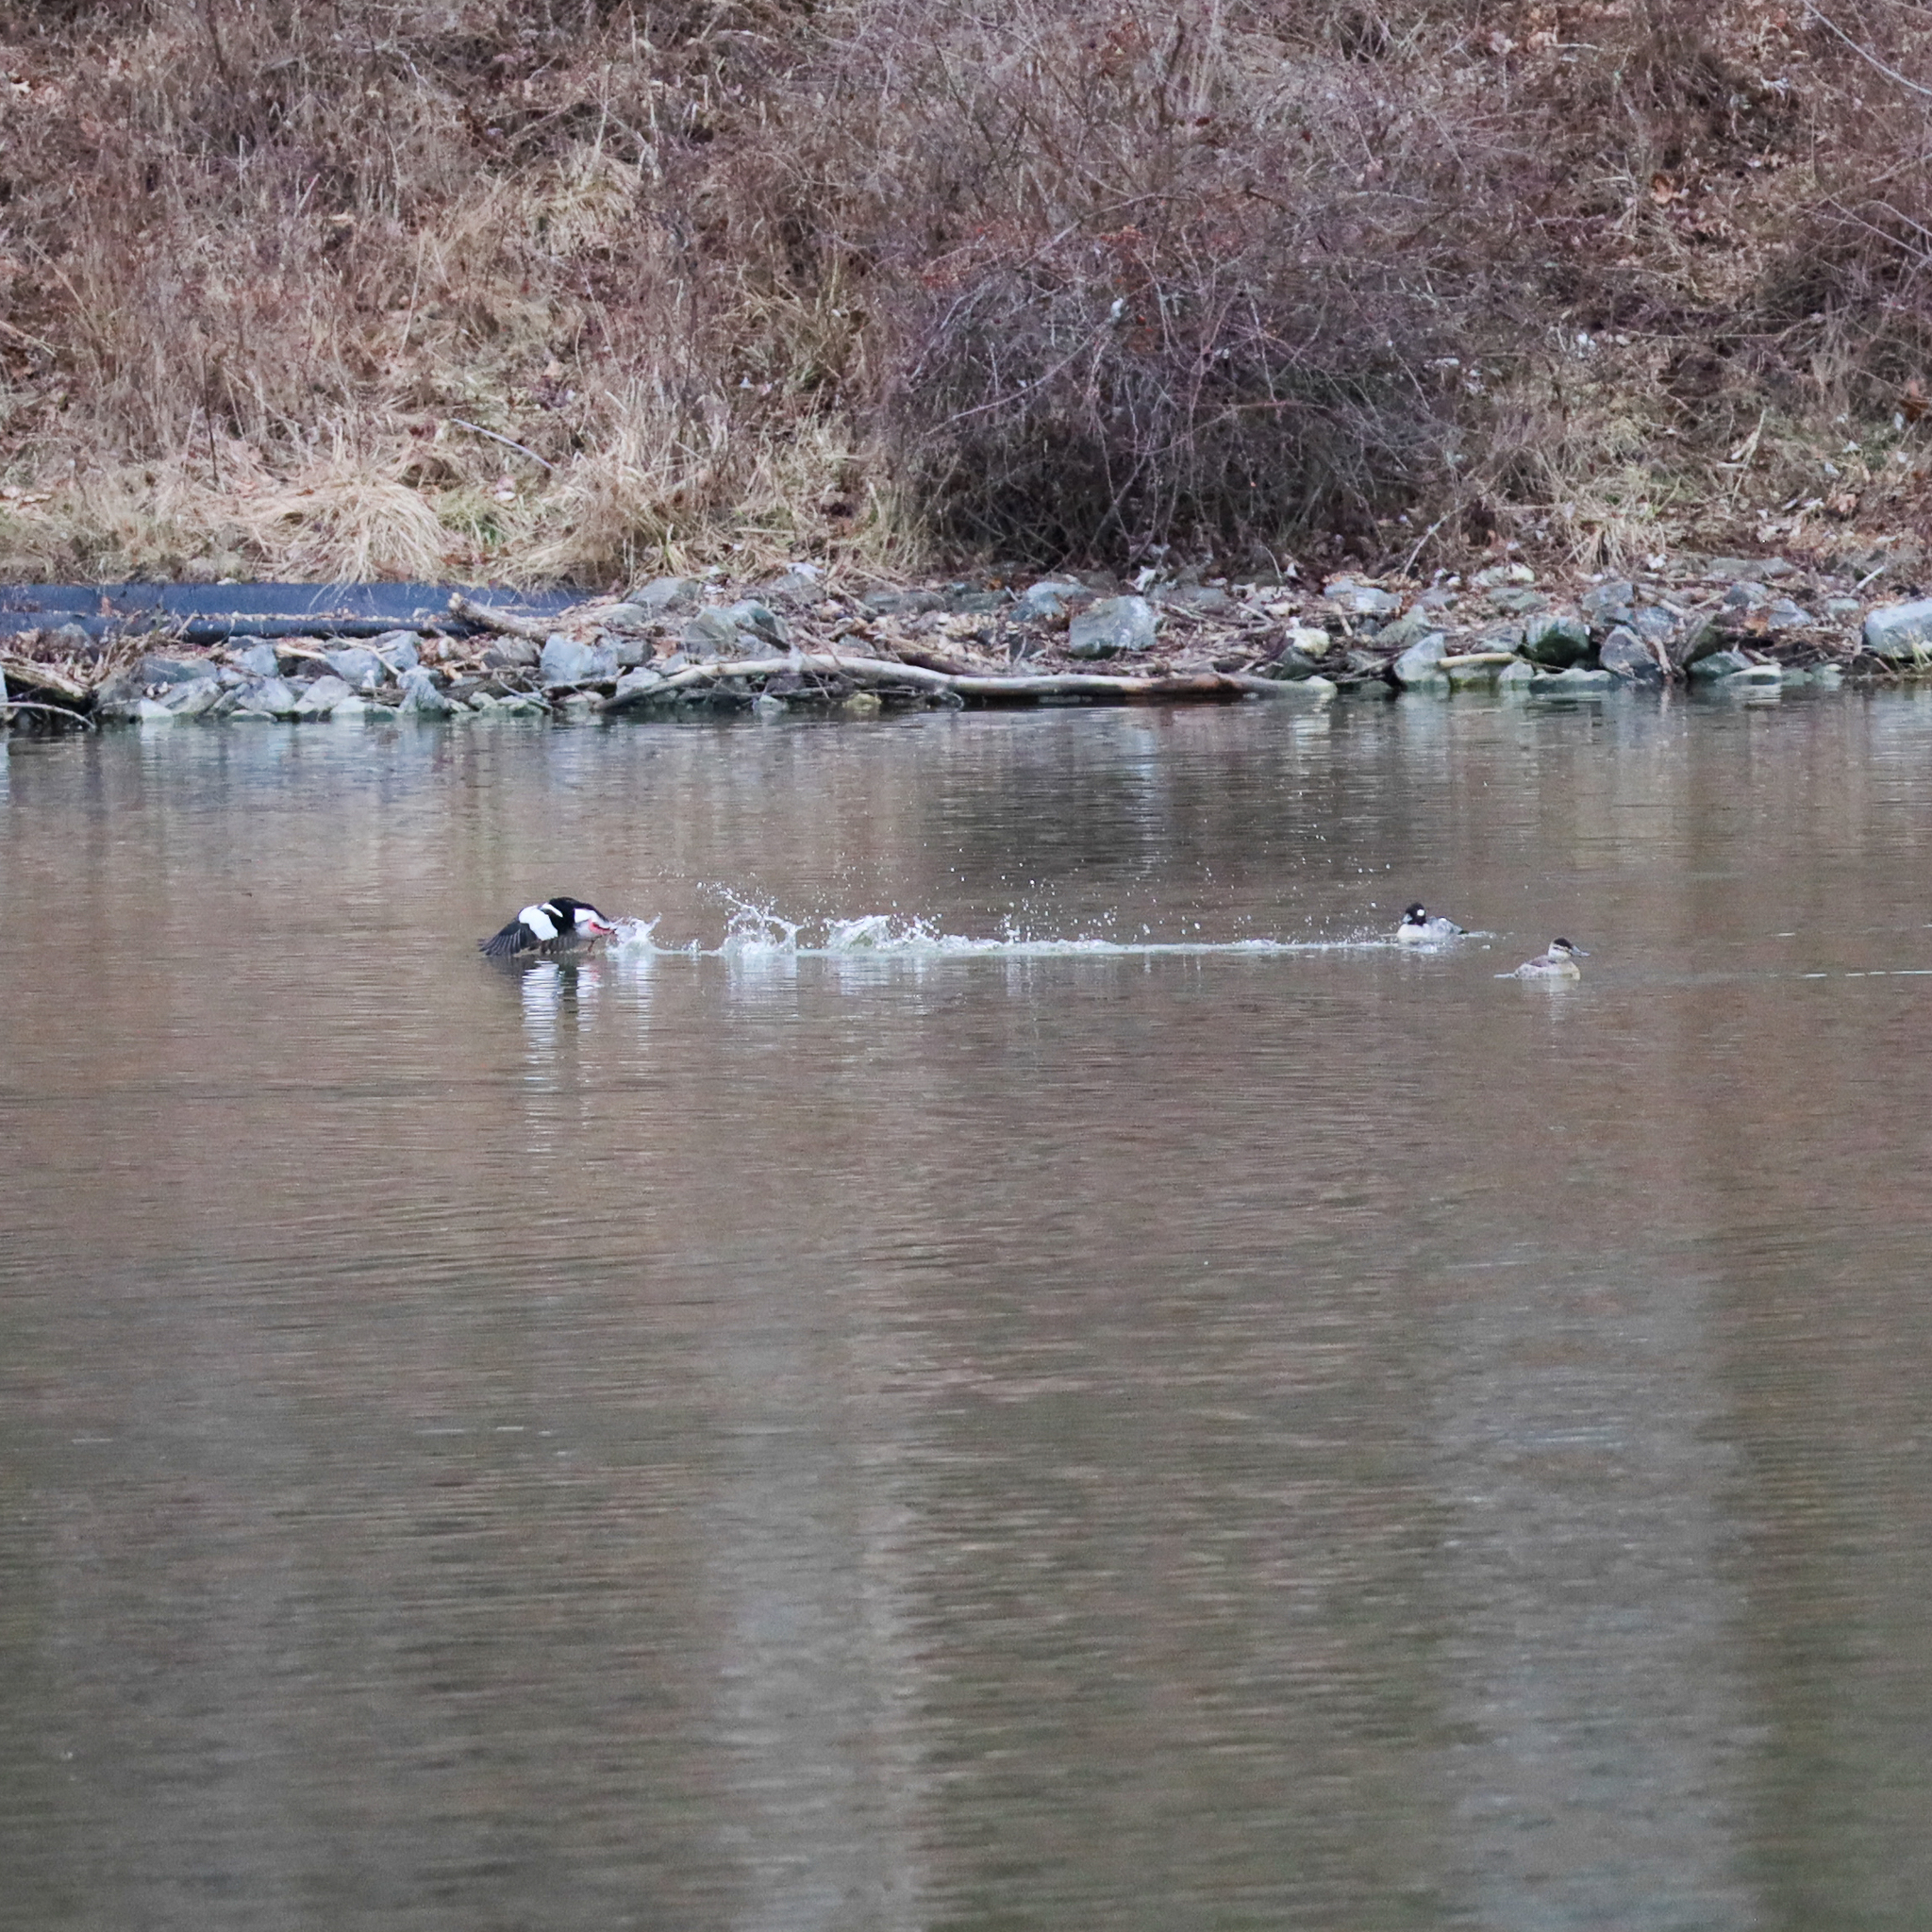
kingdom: Animalia
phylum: Chordata
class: Aves
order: Anseriformes
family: Anatidae
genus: Bucephala
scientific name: Bucephala albeola
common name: Bufflehead
